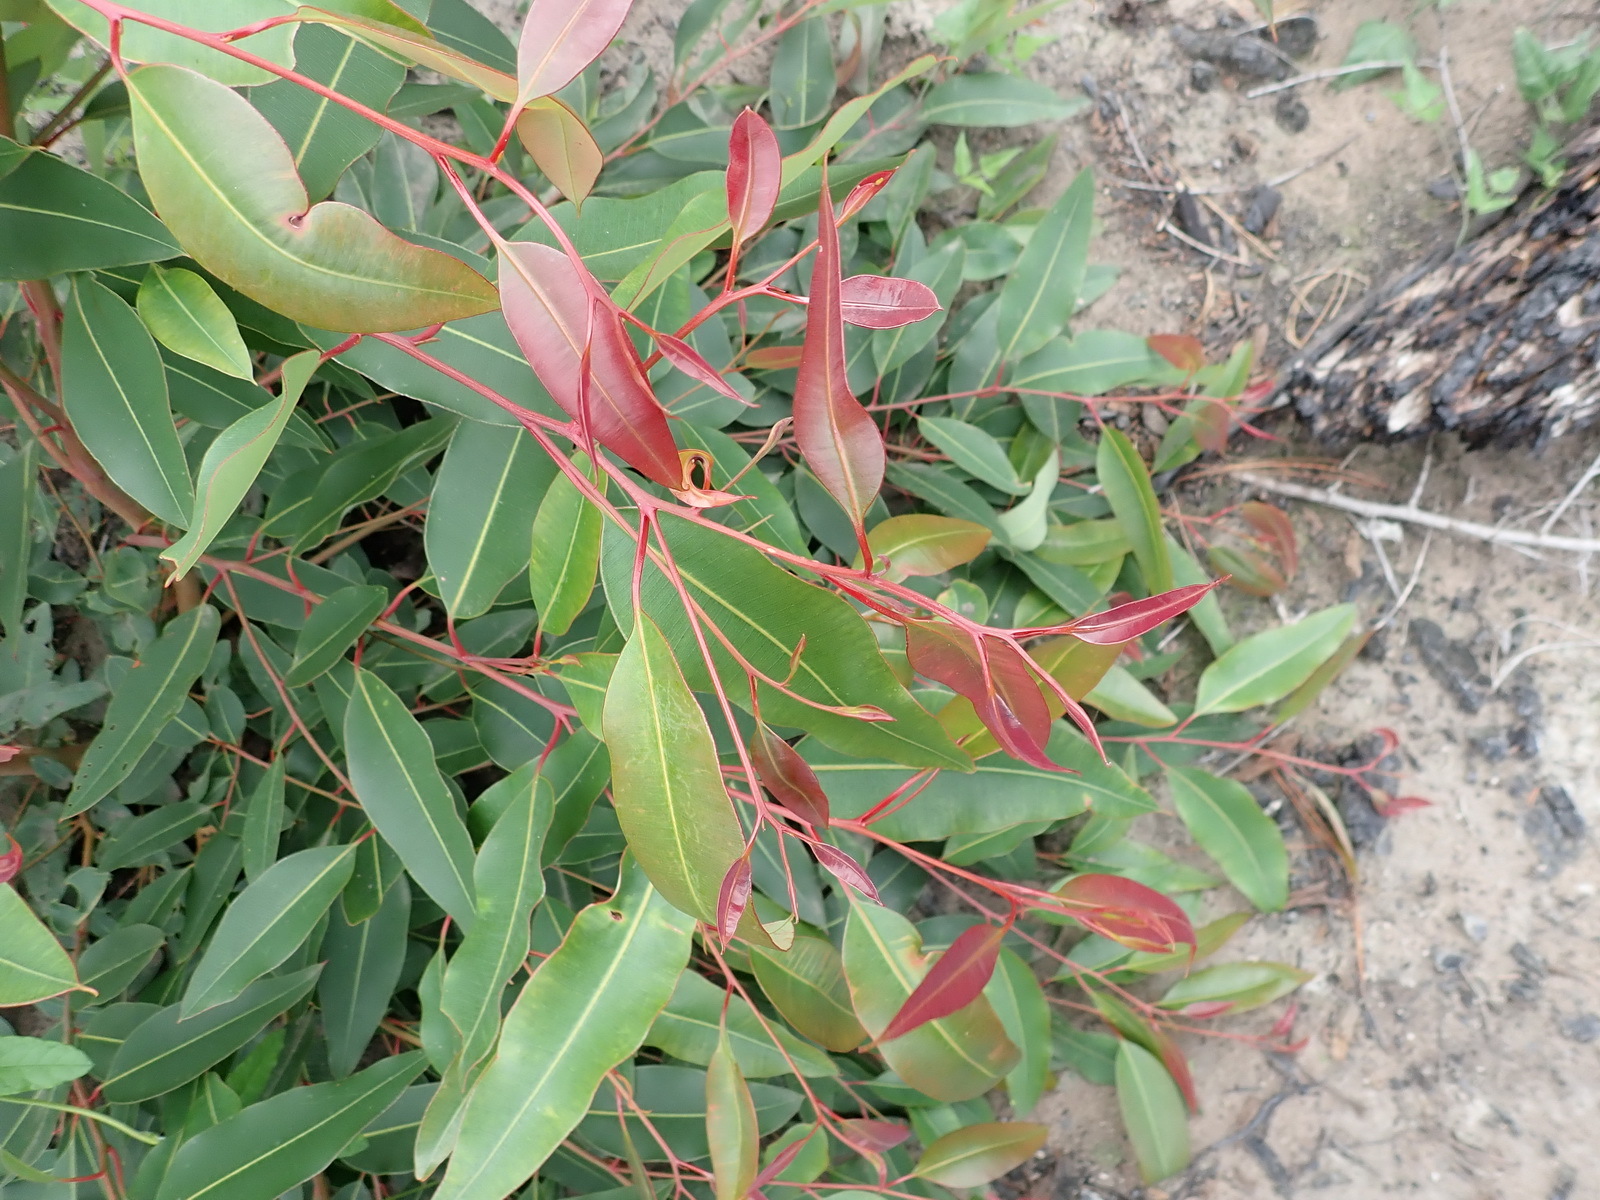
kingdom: Plantae
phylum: Tracheophyta
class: Magnoliopsida
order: Myrtales
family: Myrtaceae
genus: Corymbia
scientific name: Corymbia ficifolia
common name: Redflower gum
